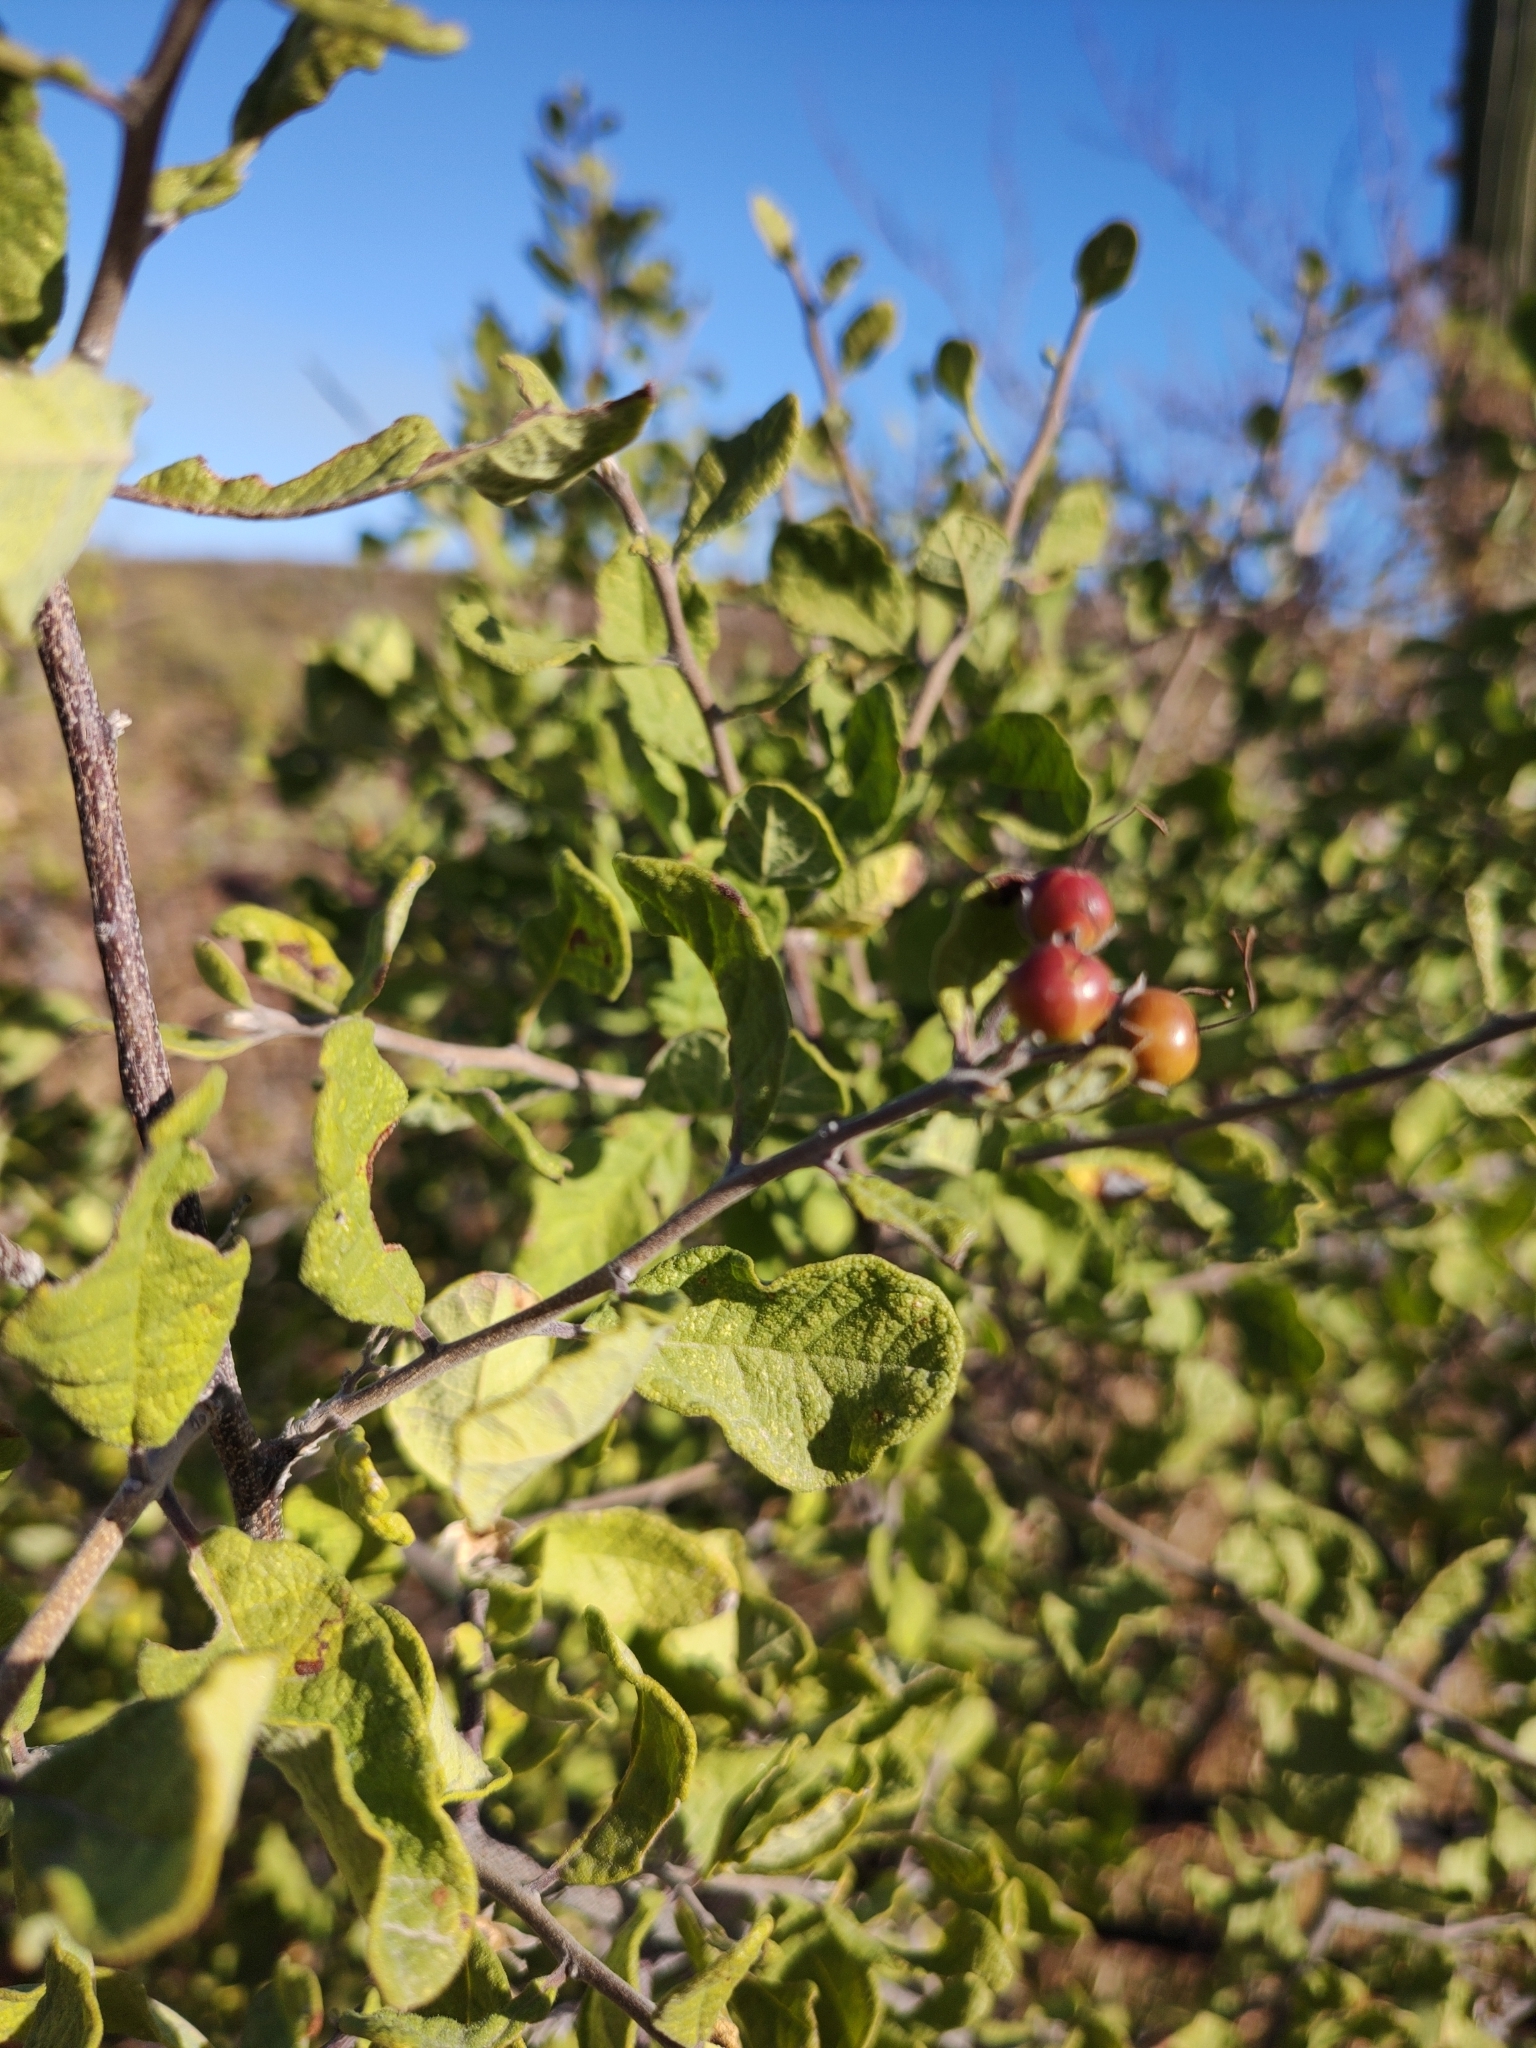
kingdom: Plantae
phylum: Tracheophyta
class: Magnoliopsida
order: Boraginales
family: Ehretiaceae
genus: Bourreria
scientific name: Bourreria sonorae
